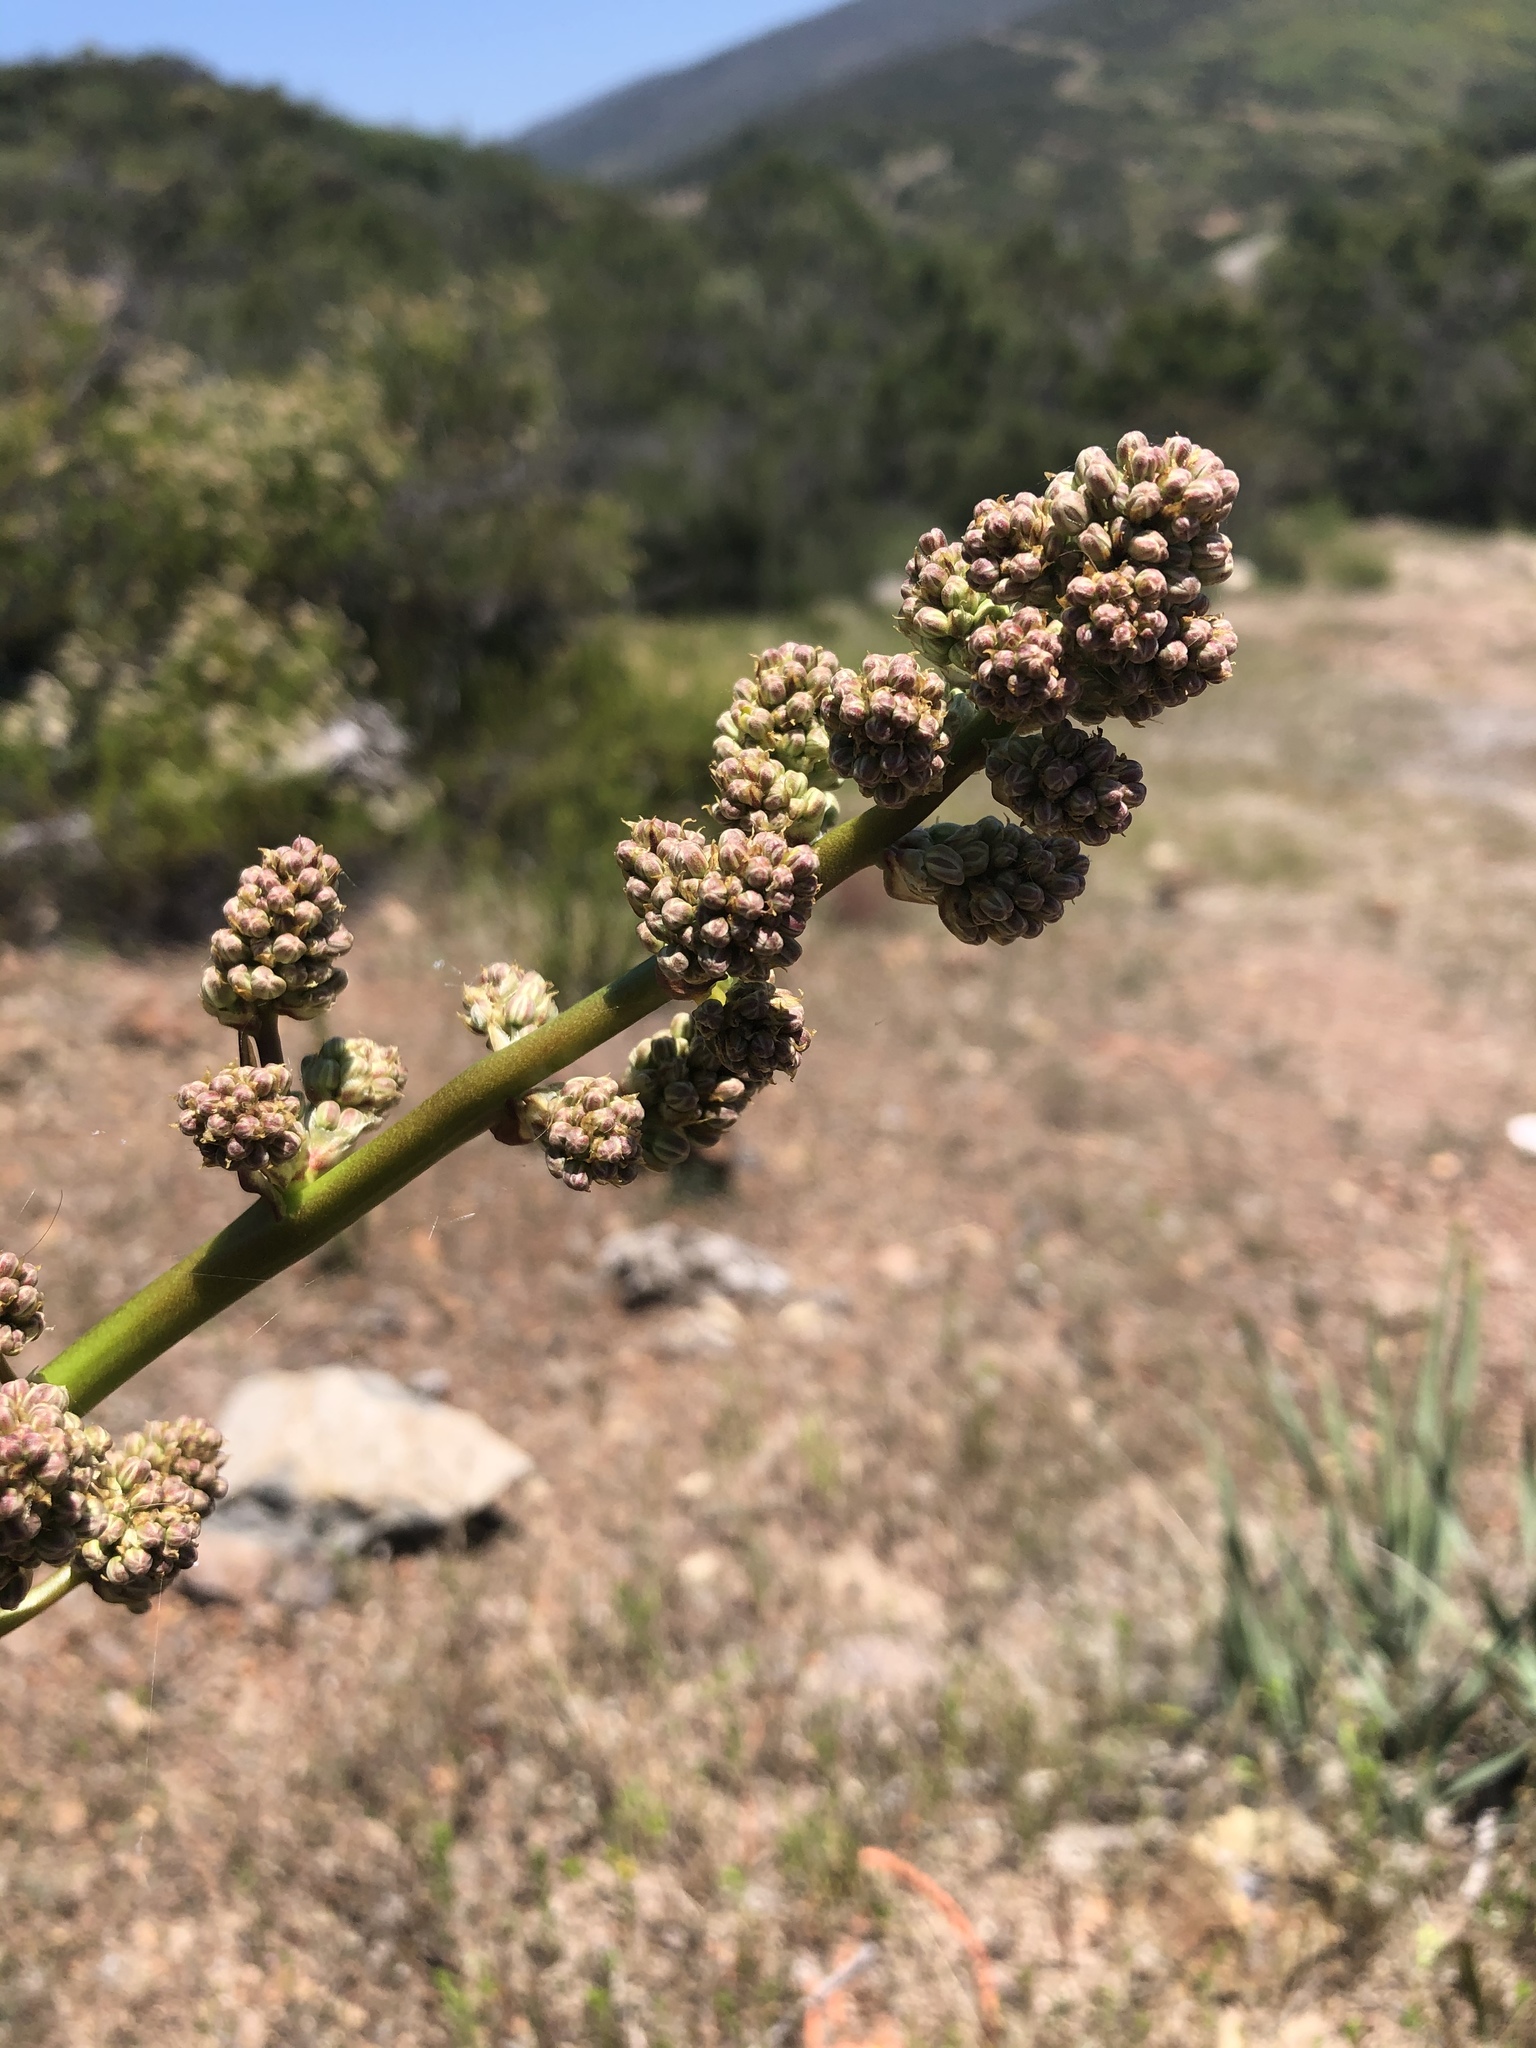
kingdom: Plantae
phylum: Tracheophyta
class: Liliopsida
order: Asparagales
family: Asparagaceae
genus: Nolina
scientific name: Nolina interrata
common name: Dehesa bear-grass
